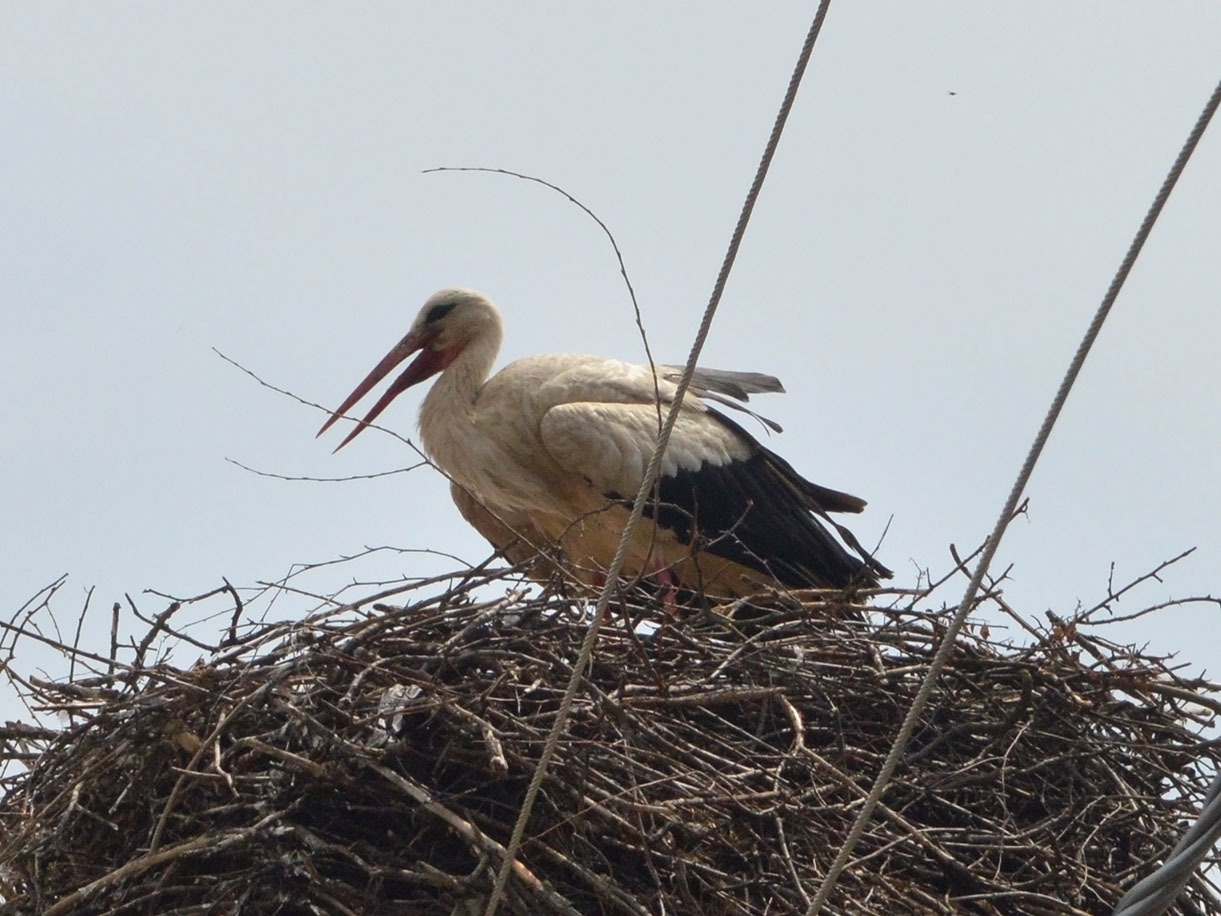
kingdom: Animalia
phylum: Chordata
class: Aves
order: Ciconiiformes
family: Ciconiidae
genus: Ciconia
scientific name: Ciconia ciconia
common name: White stork
